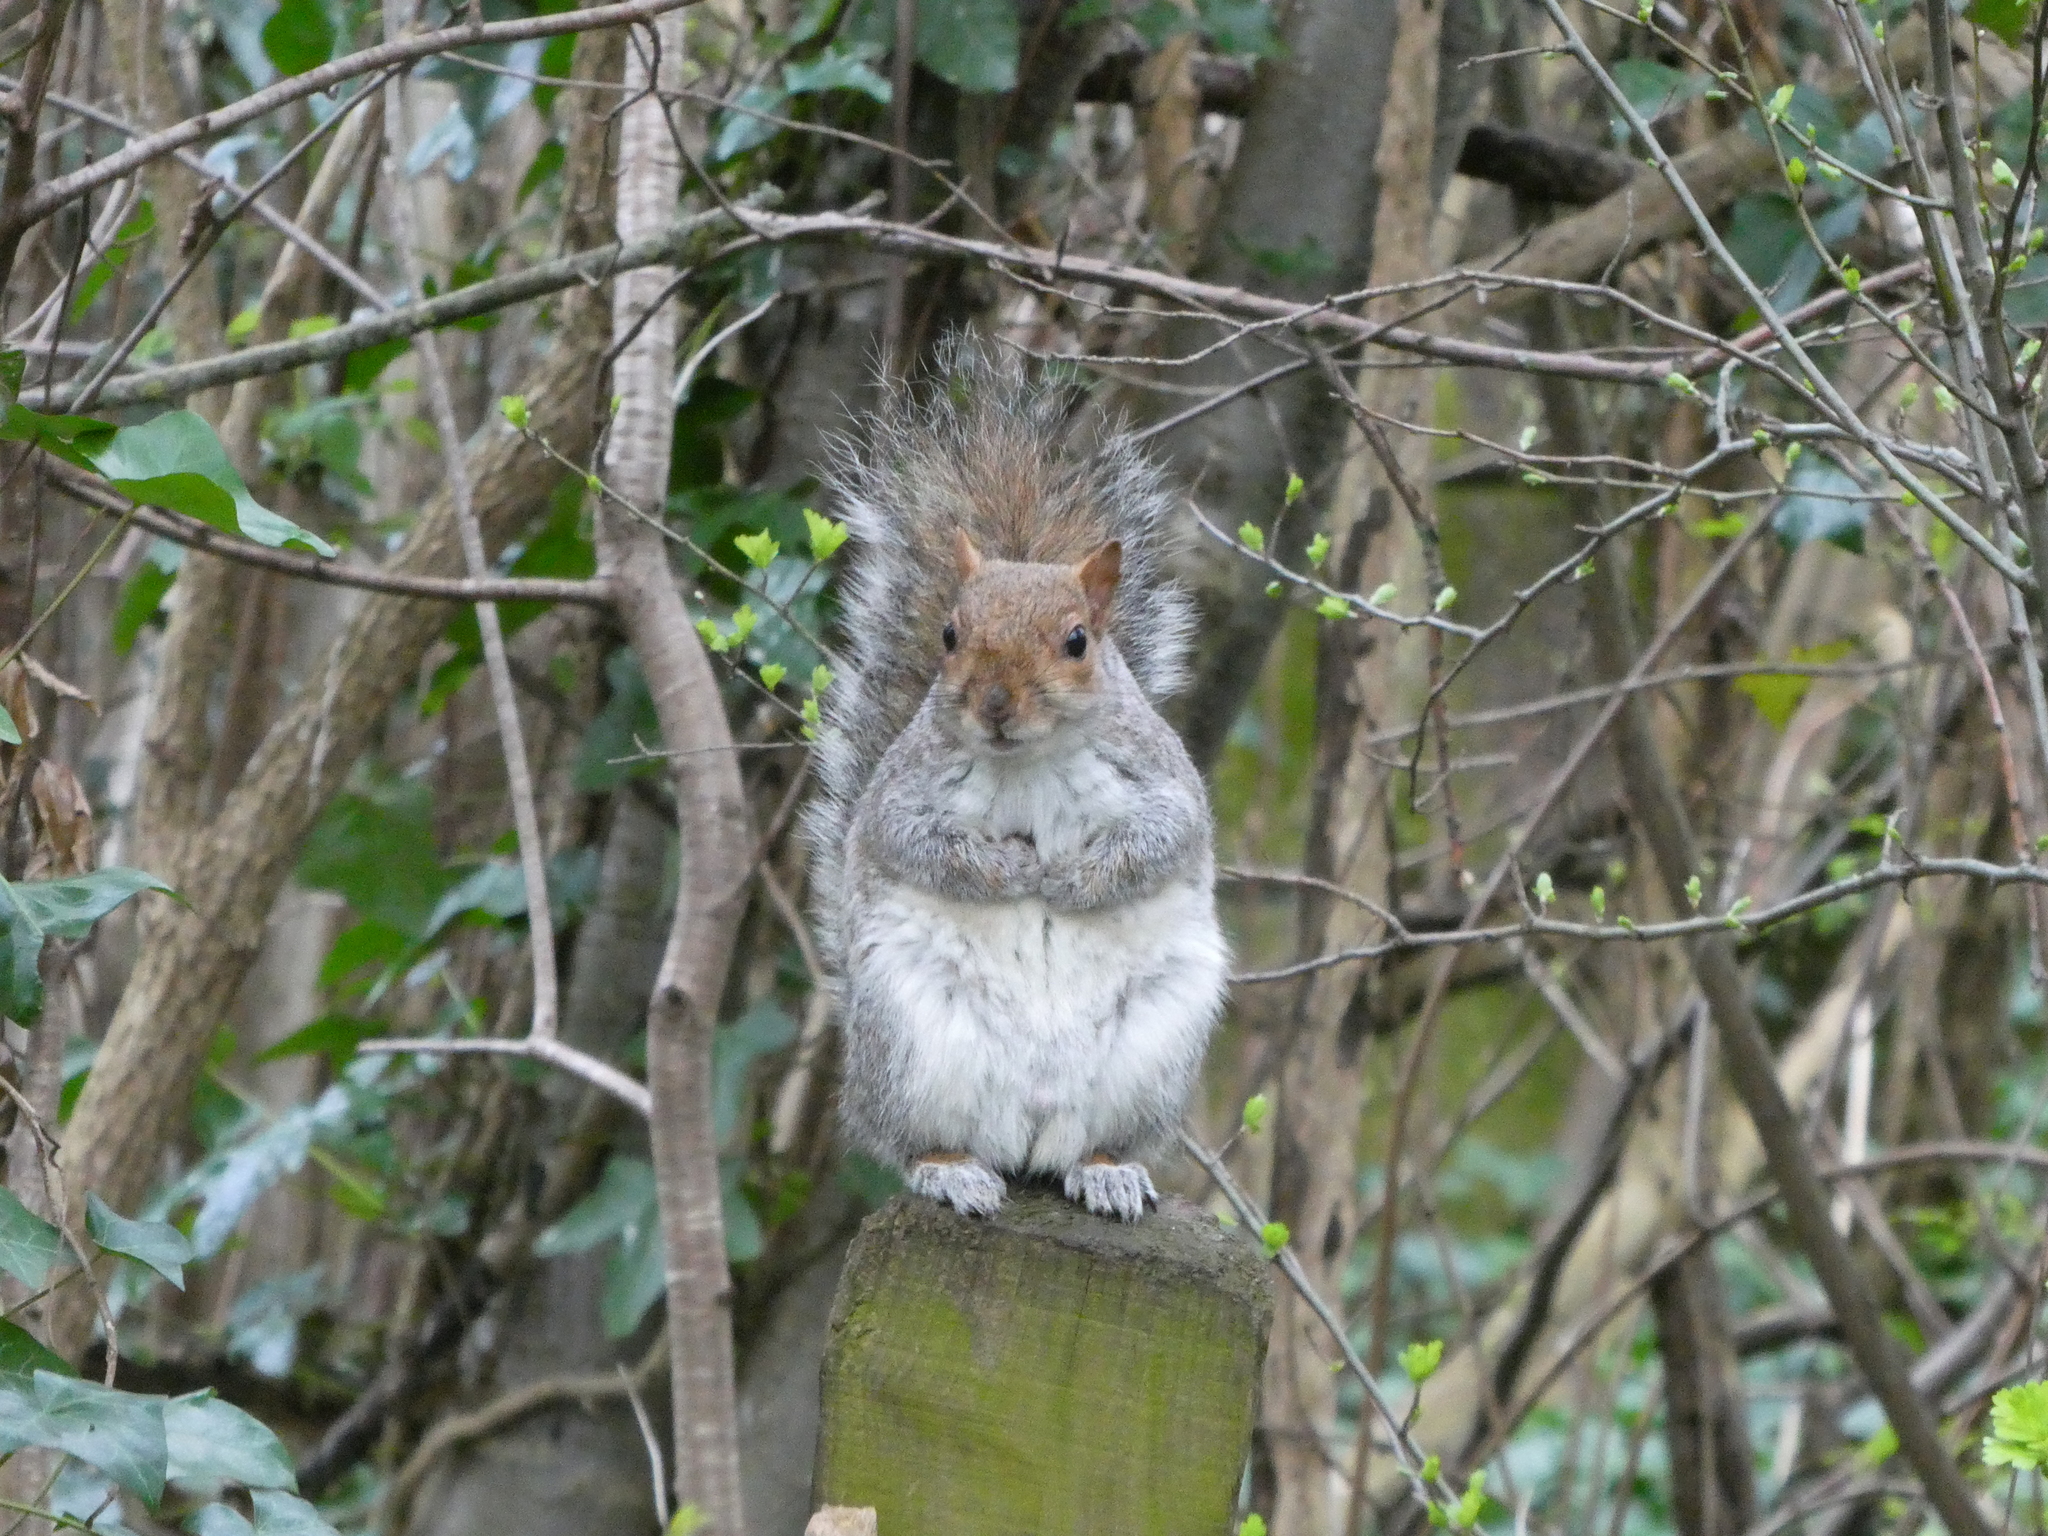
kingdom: Animalia
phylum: Chordata
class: Mammalia
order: Rodentia
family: Sciuridae
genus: Sciurus
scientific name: Sciurus carolinensis
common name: Eastern gray squirrel
